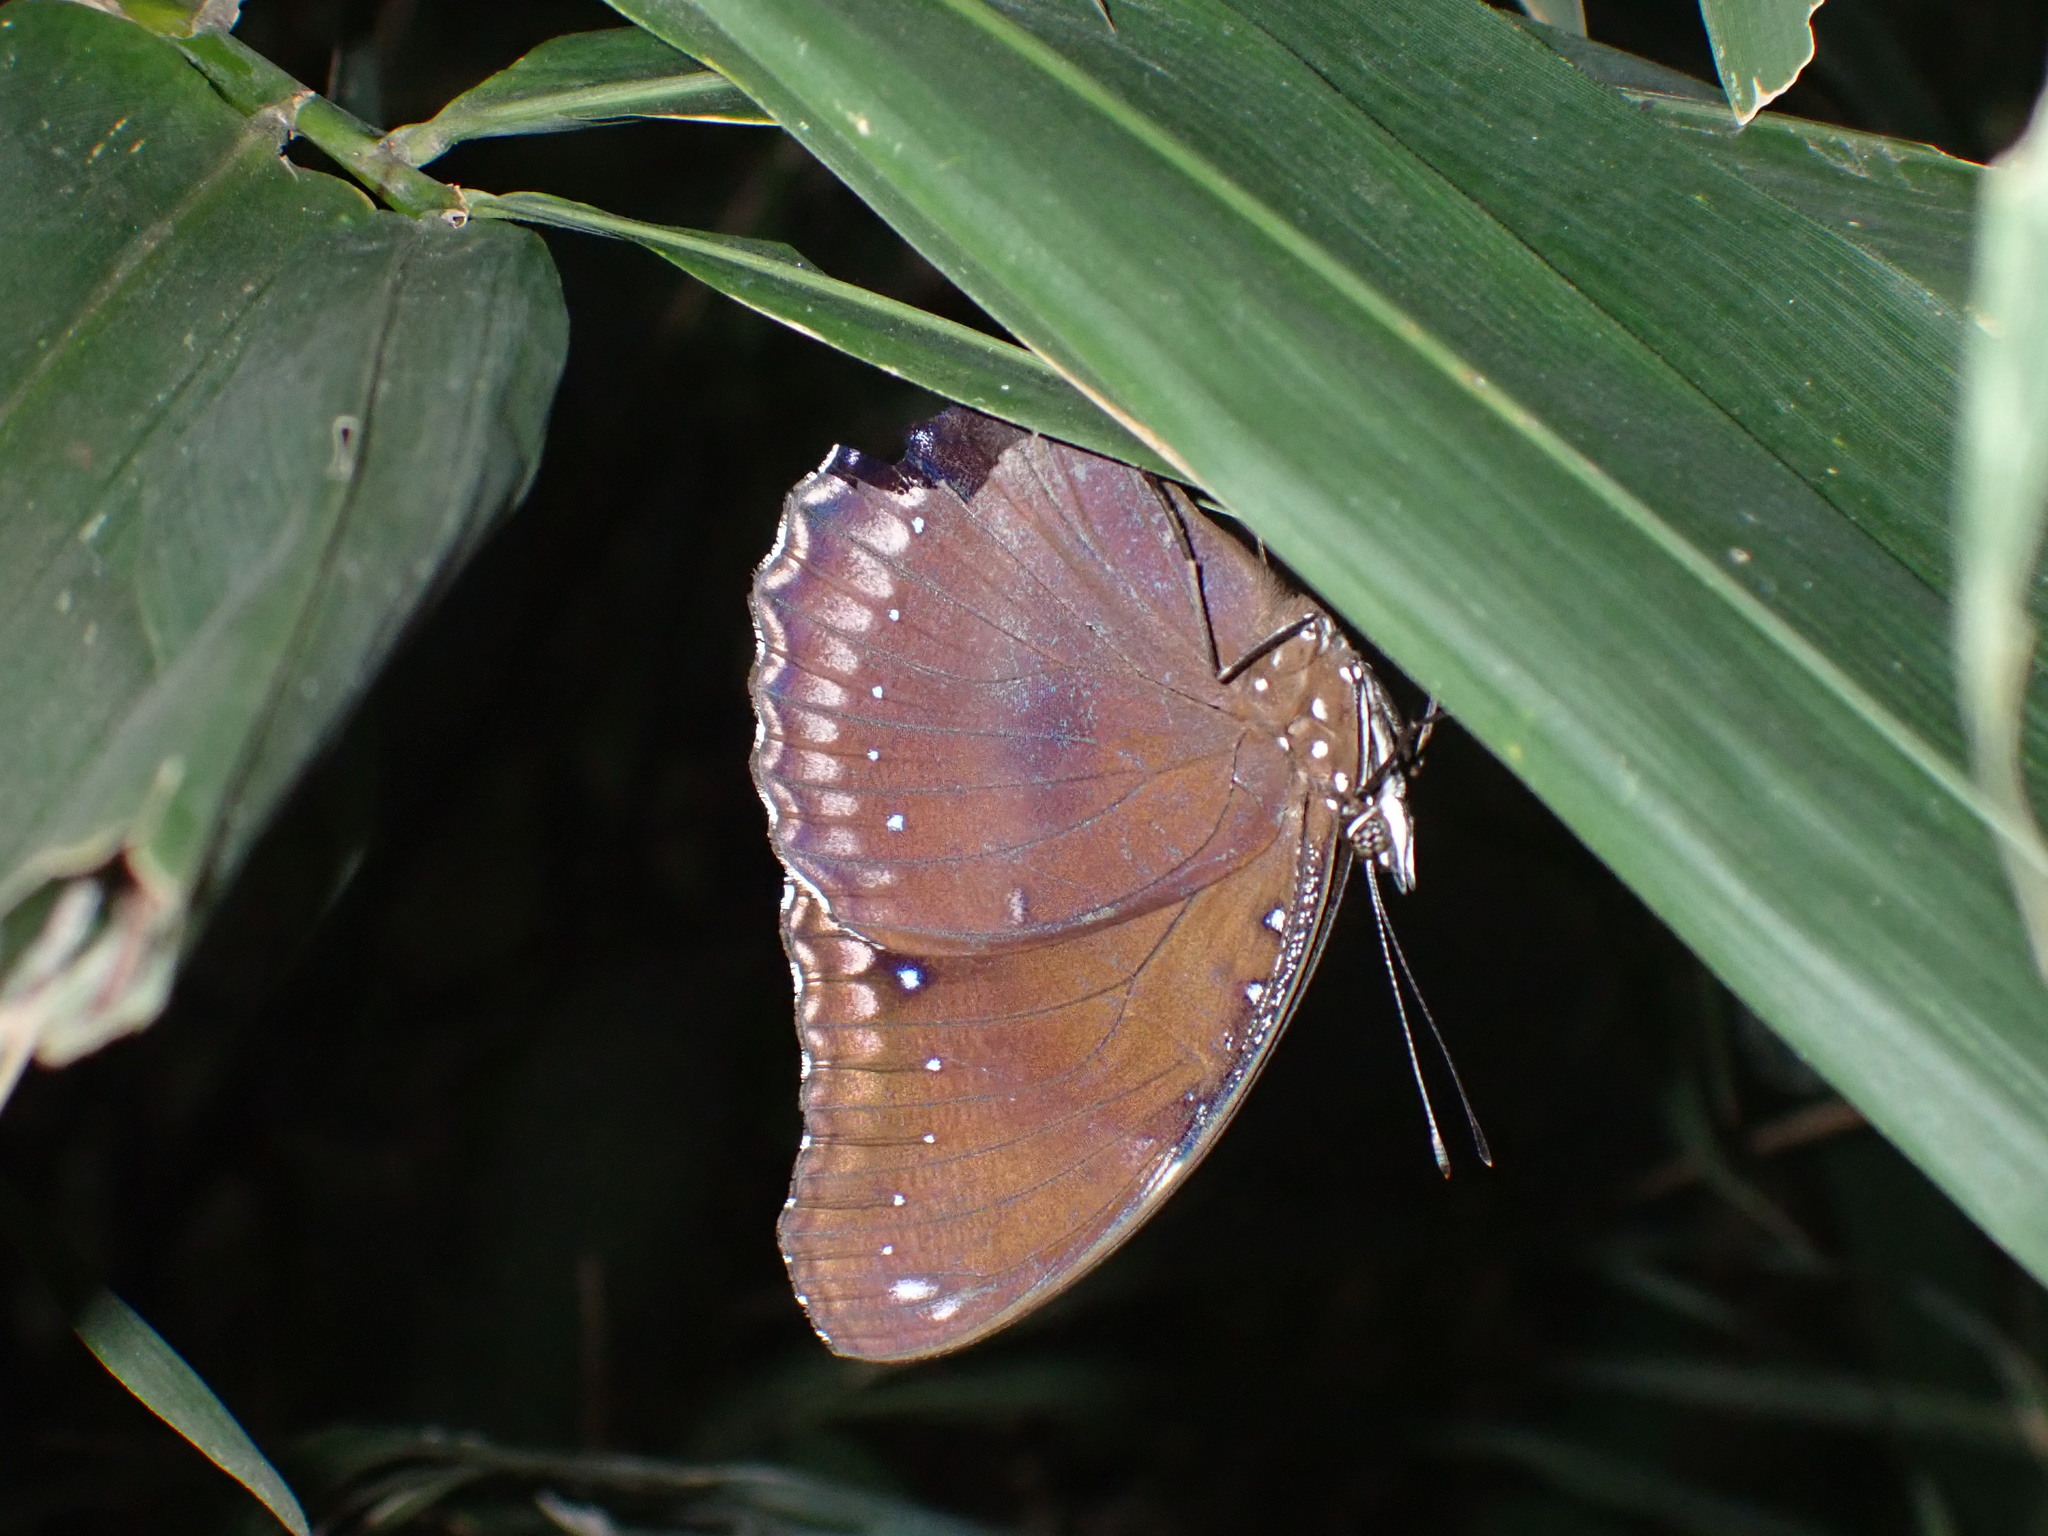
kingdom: Animalia
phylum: Arthropoda
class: Insecta
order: Lepidoptera
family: Nymphalidae
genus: Hypolimnas
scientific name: Hypolimnas bolina
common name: Great eggfly
